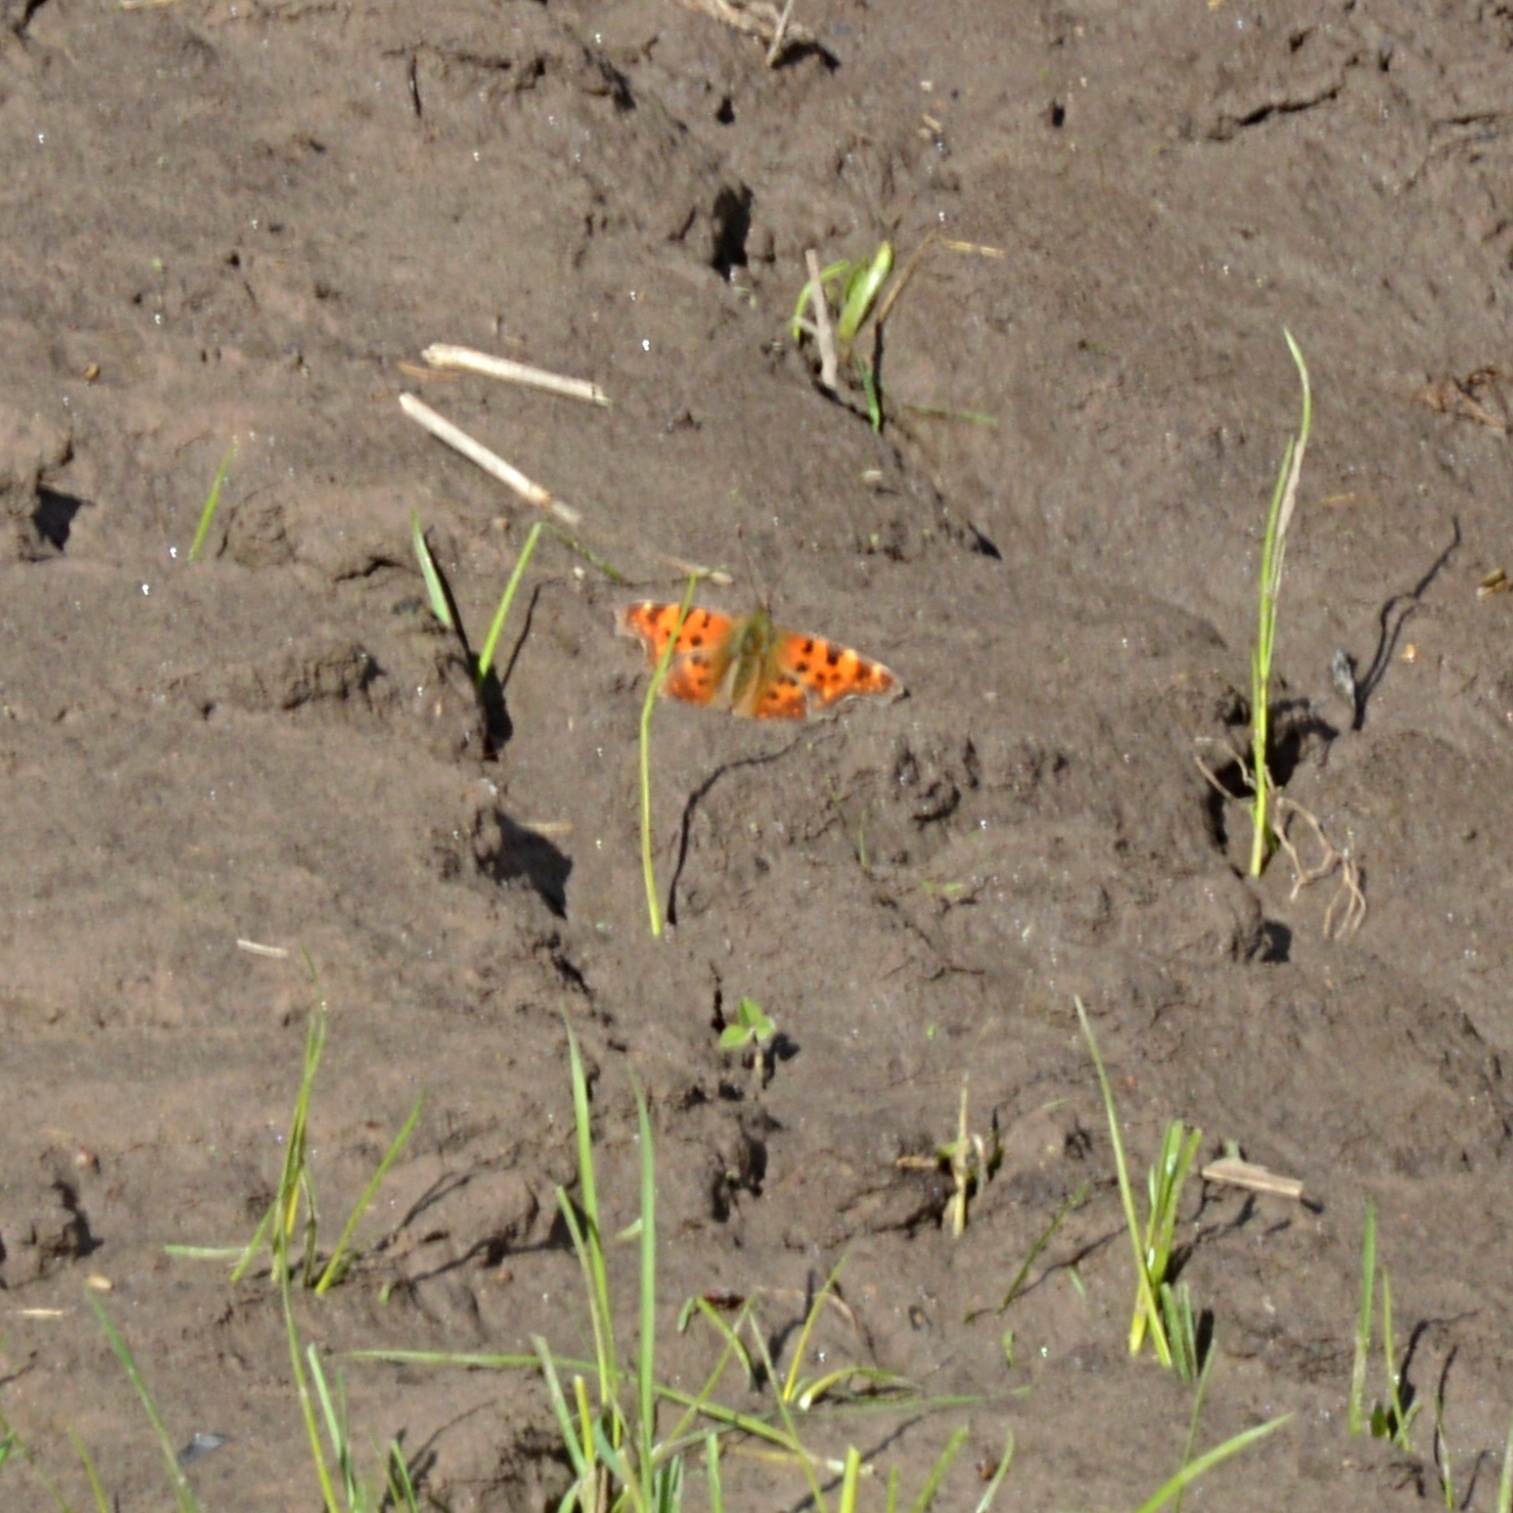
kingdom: Animalia
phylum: Arthropoda
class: Insecta
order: Lepidoptera
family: Nymphalidae
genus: Polygonia
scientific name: Polygonia c-album
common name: Comma
